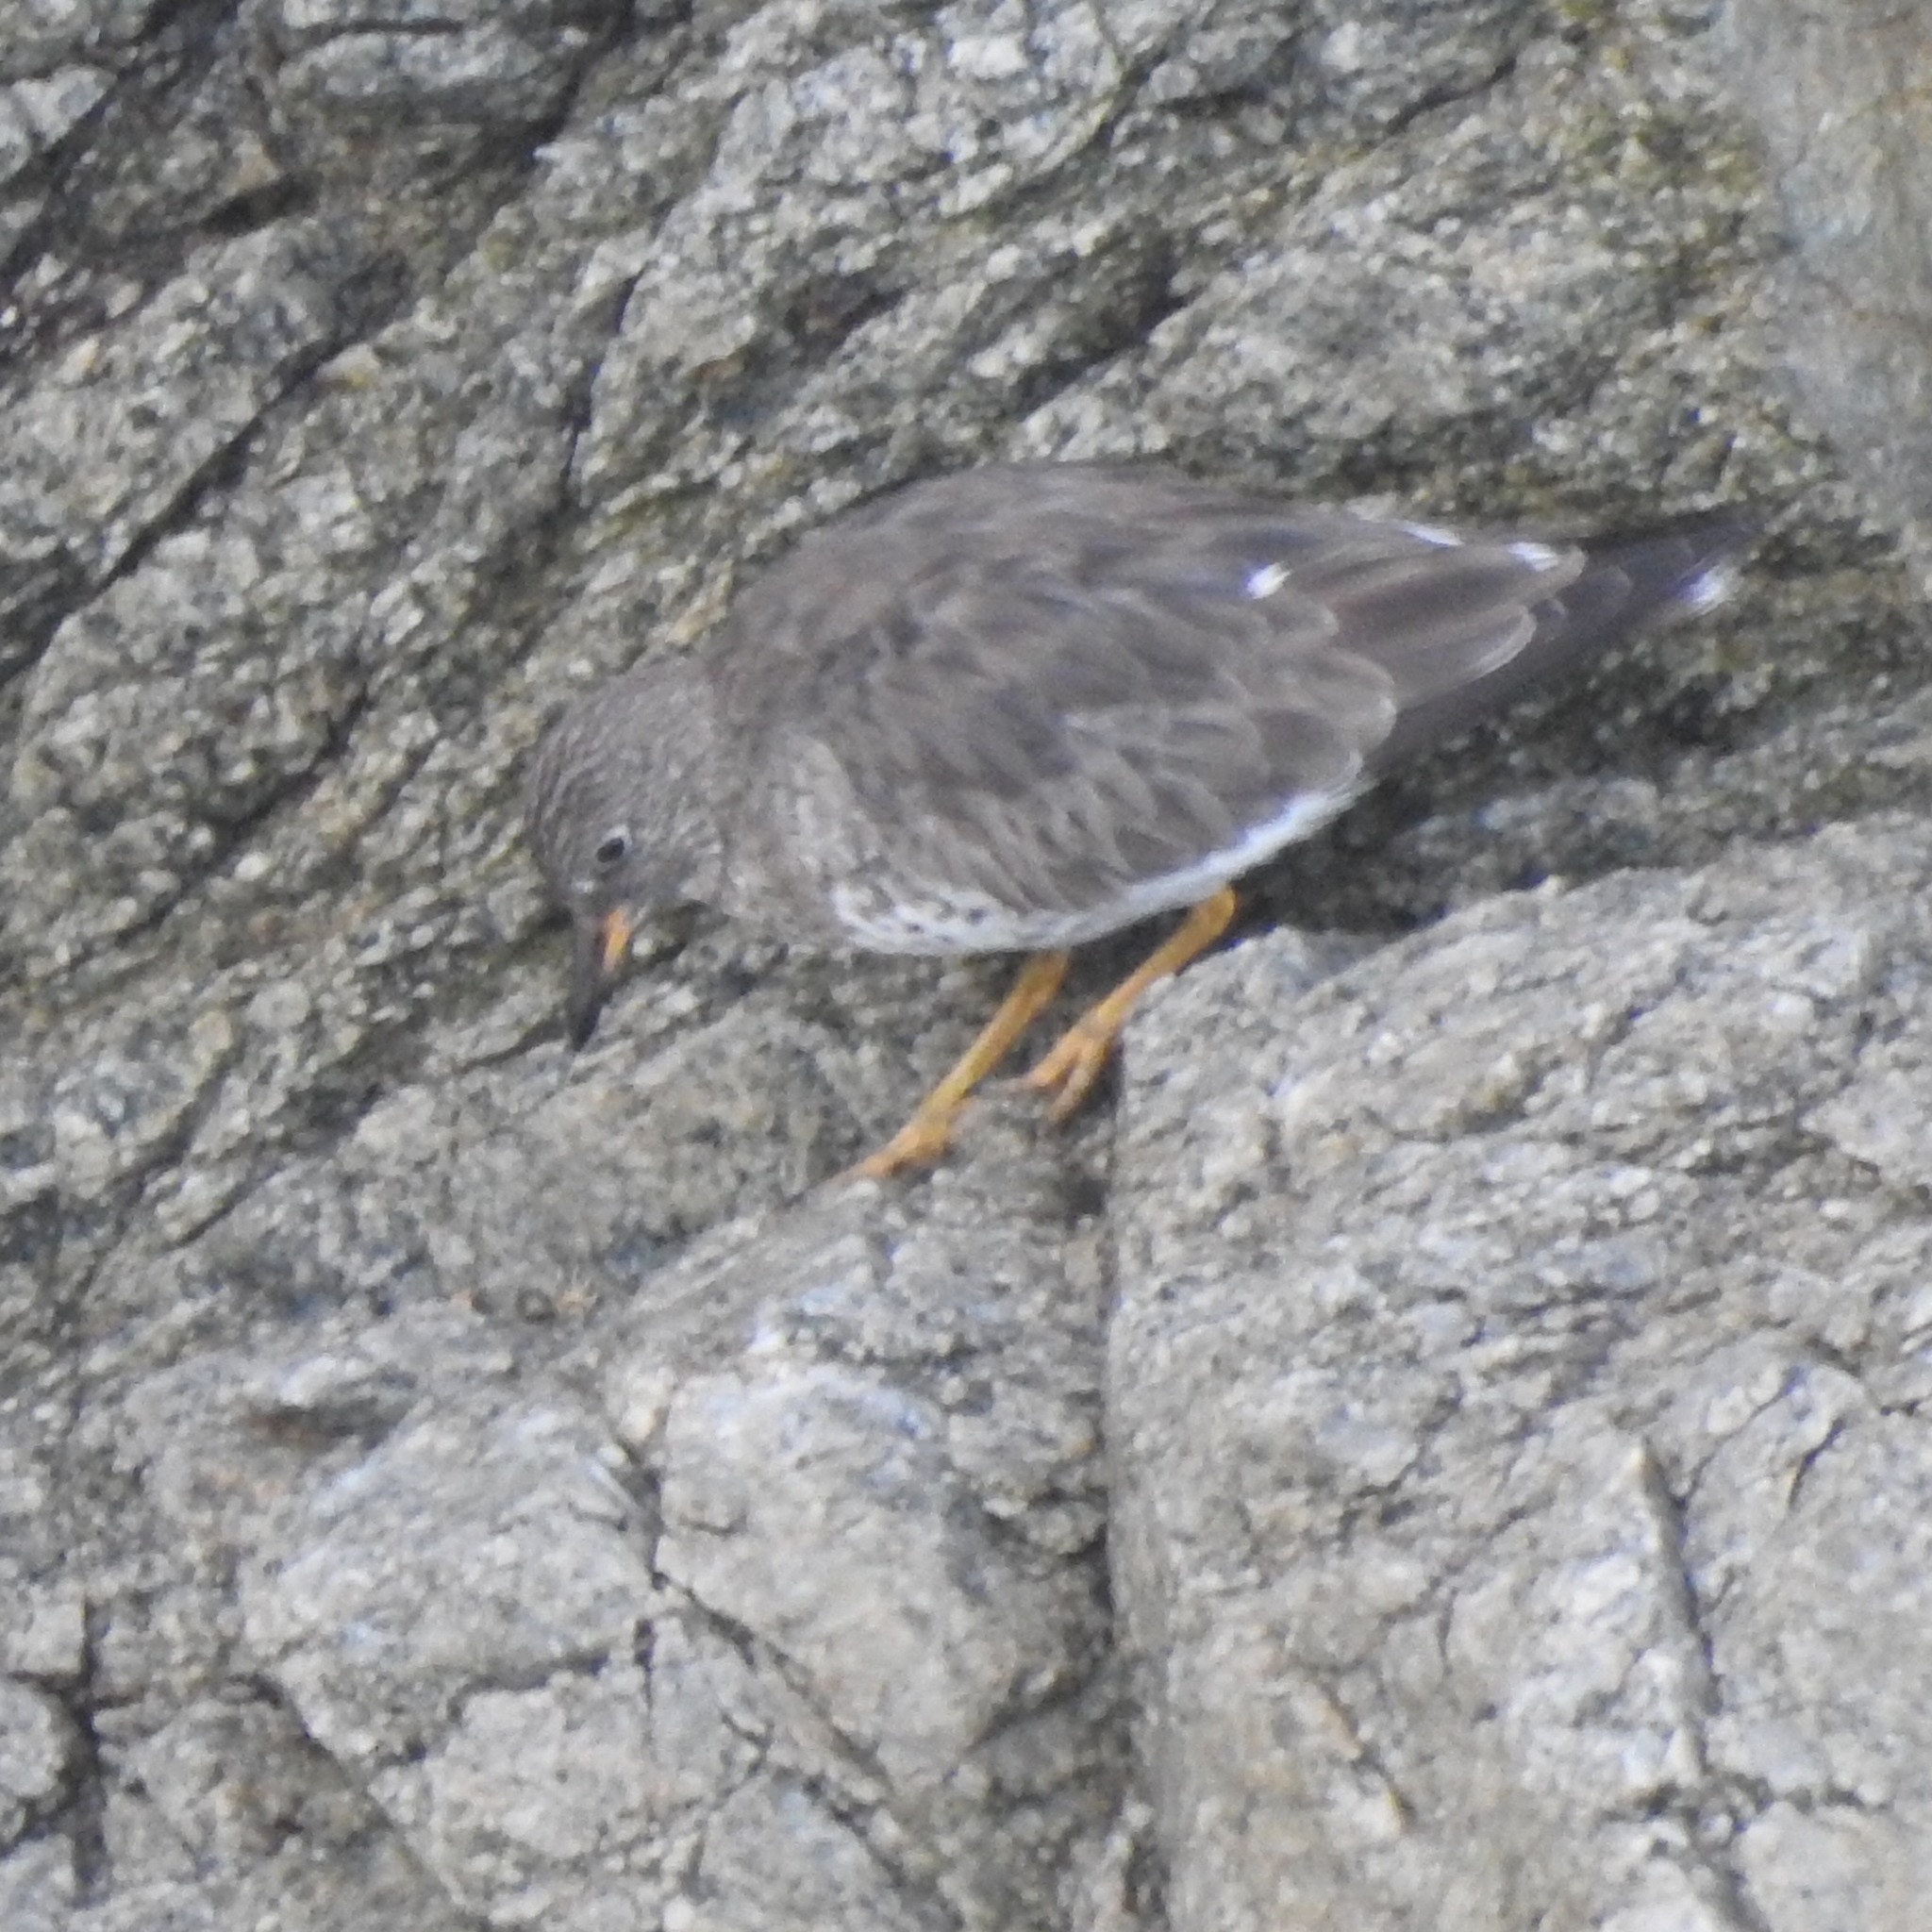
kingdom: Animalia
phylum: Chordata
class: Aves
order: Charadriiformes
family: Scolopacidae
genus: Calidris
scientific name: Calidris virgata
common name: Surfbird
